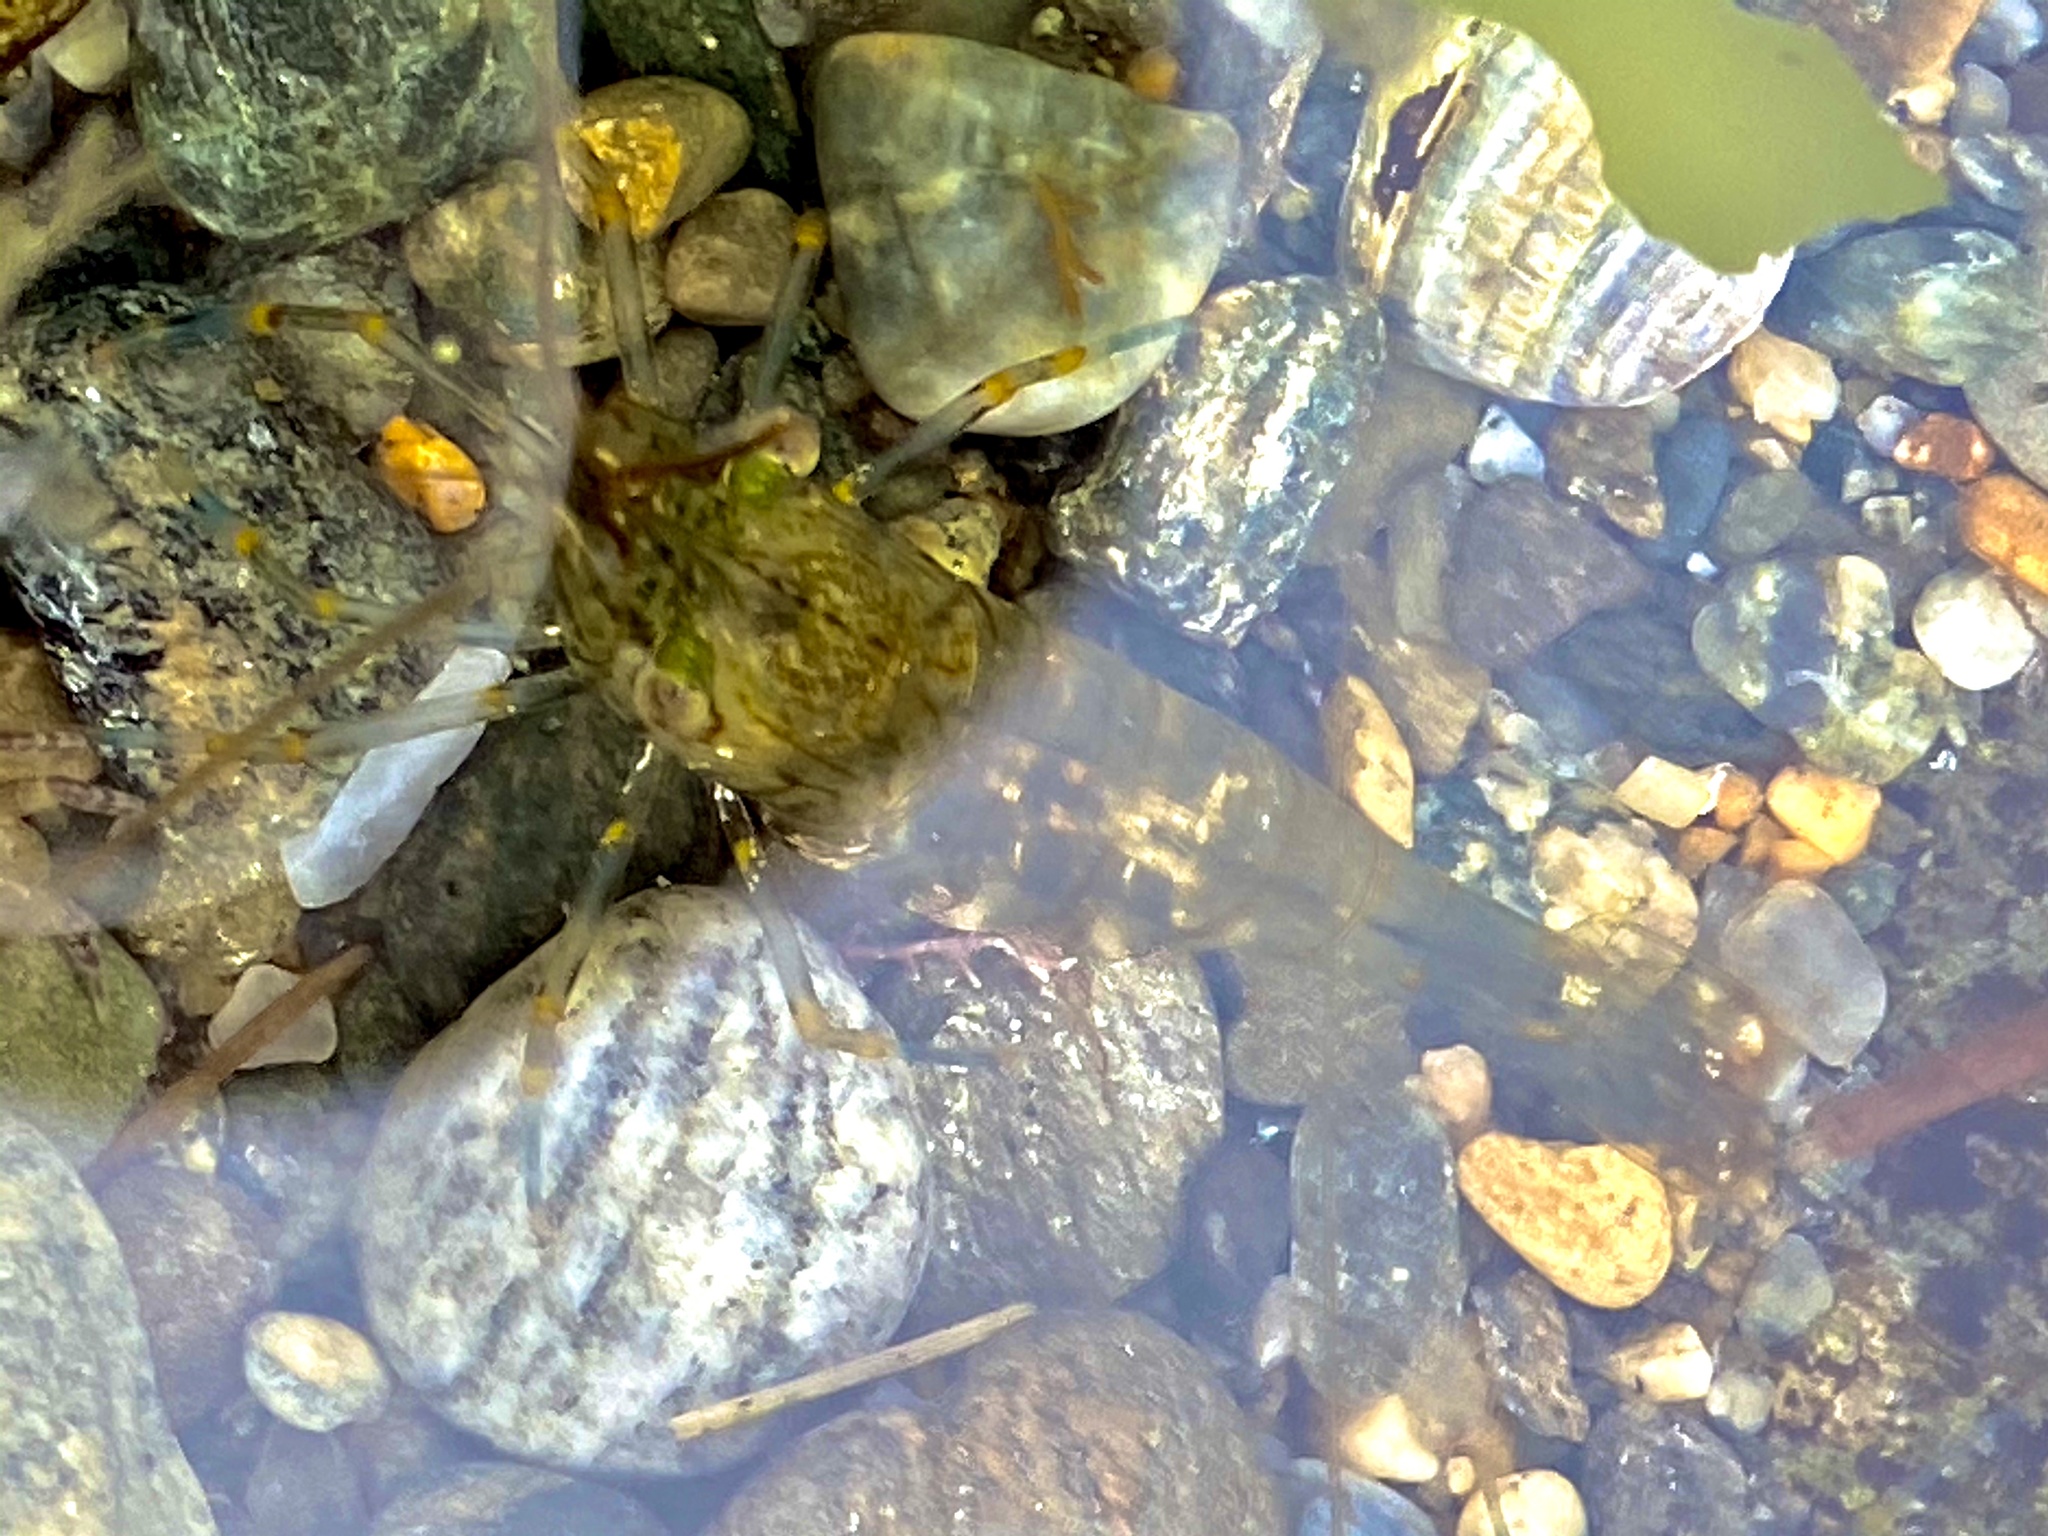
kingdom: Animalia
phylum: Arthropoda
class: Malacostraca
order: Decapoda
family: Palaemonidae
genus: Palaemon
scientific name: Palaemon elegans
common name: Grass prawm
